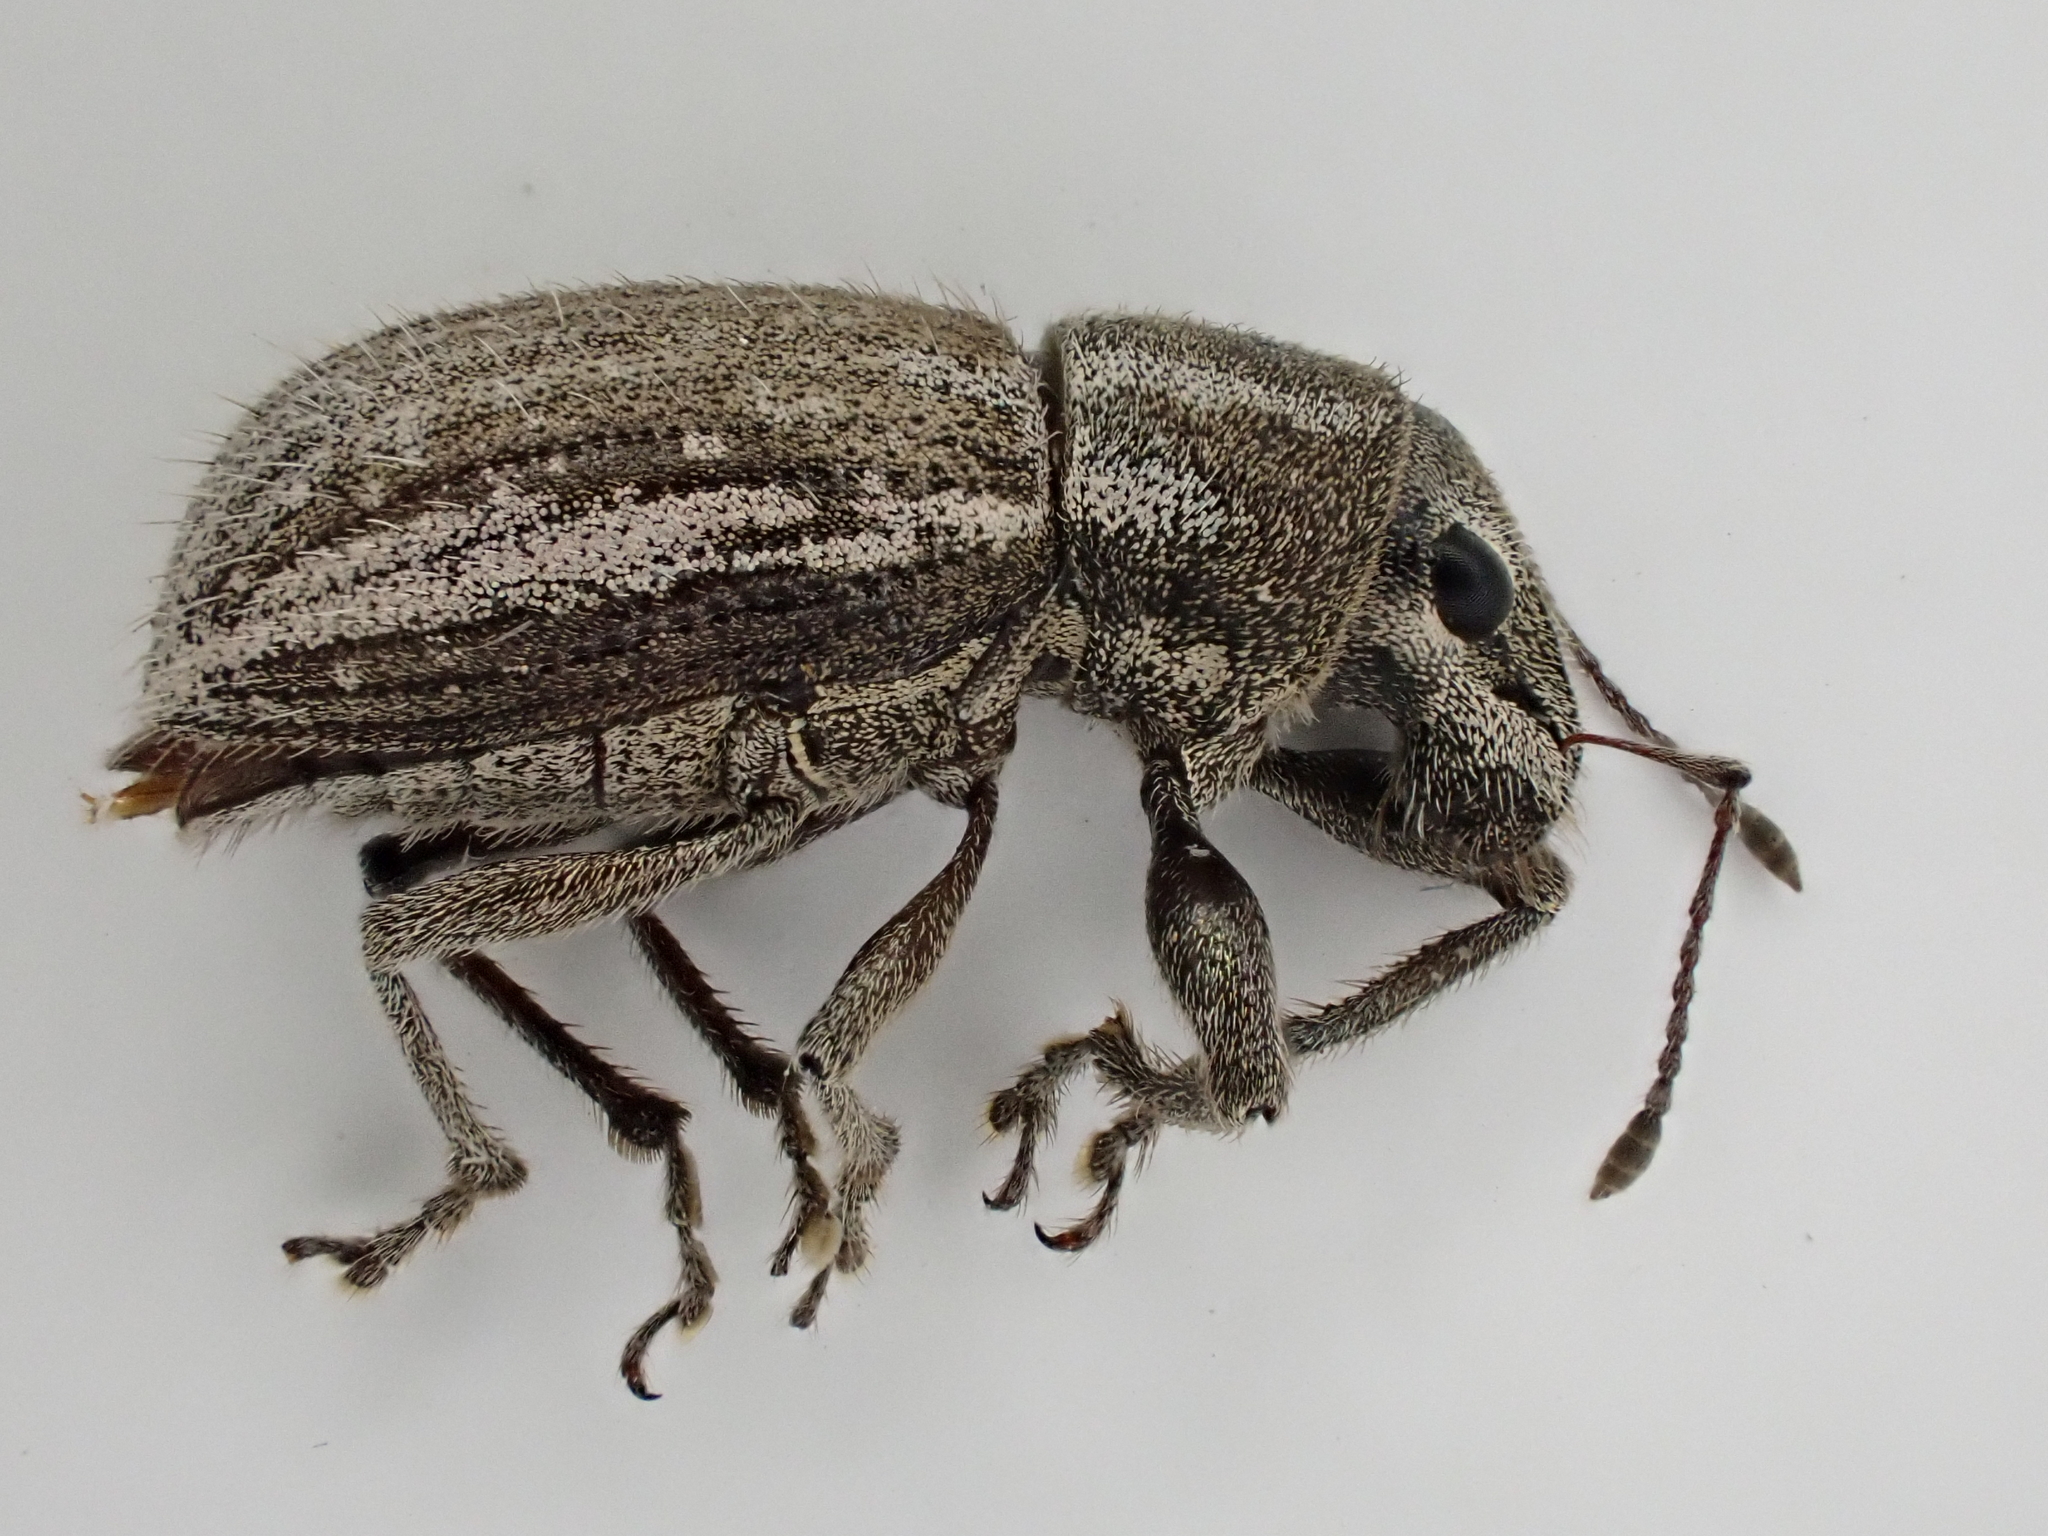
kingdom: Animalia
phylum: Arthropoda
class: Insecta
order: Coleoptera
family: Curculionidae
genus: Naupactus
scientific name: Naupactus leucoloma
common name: Whitefringed beetle
